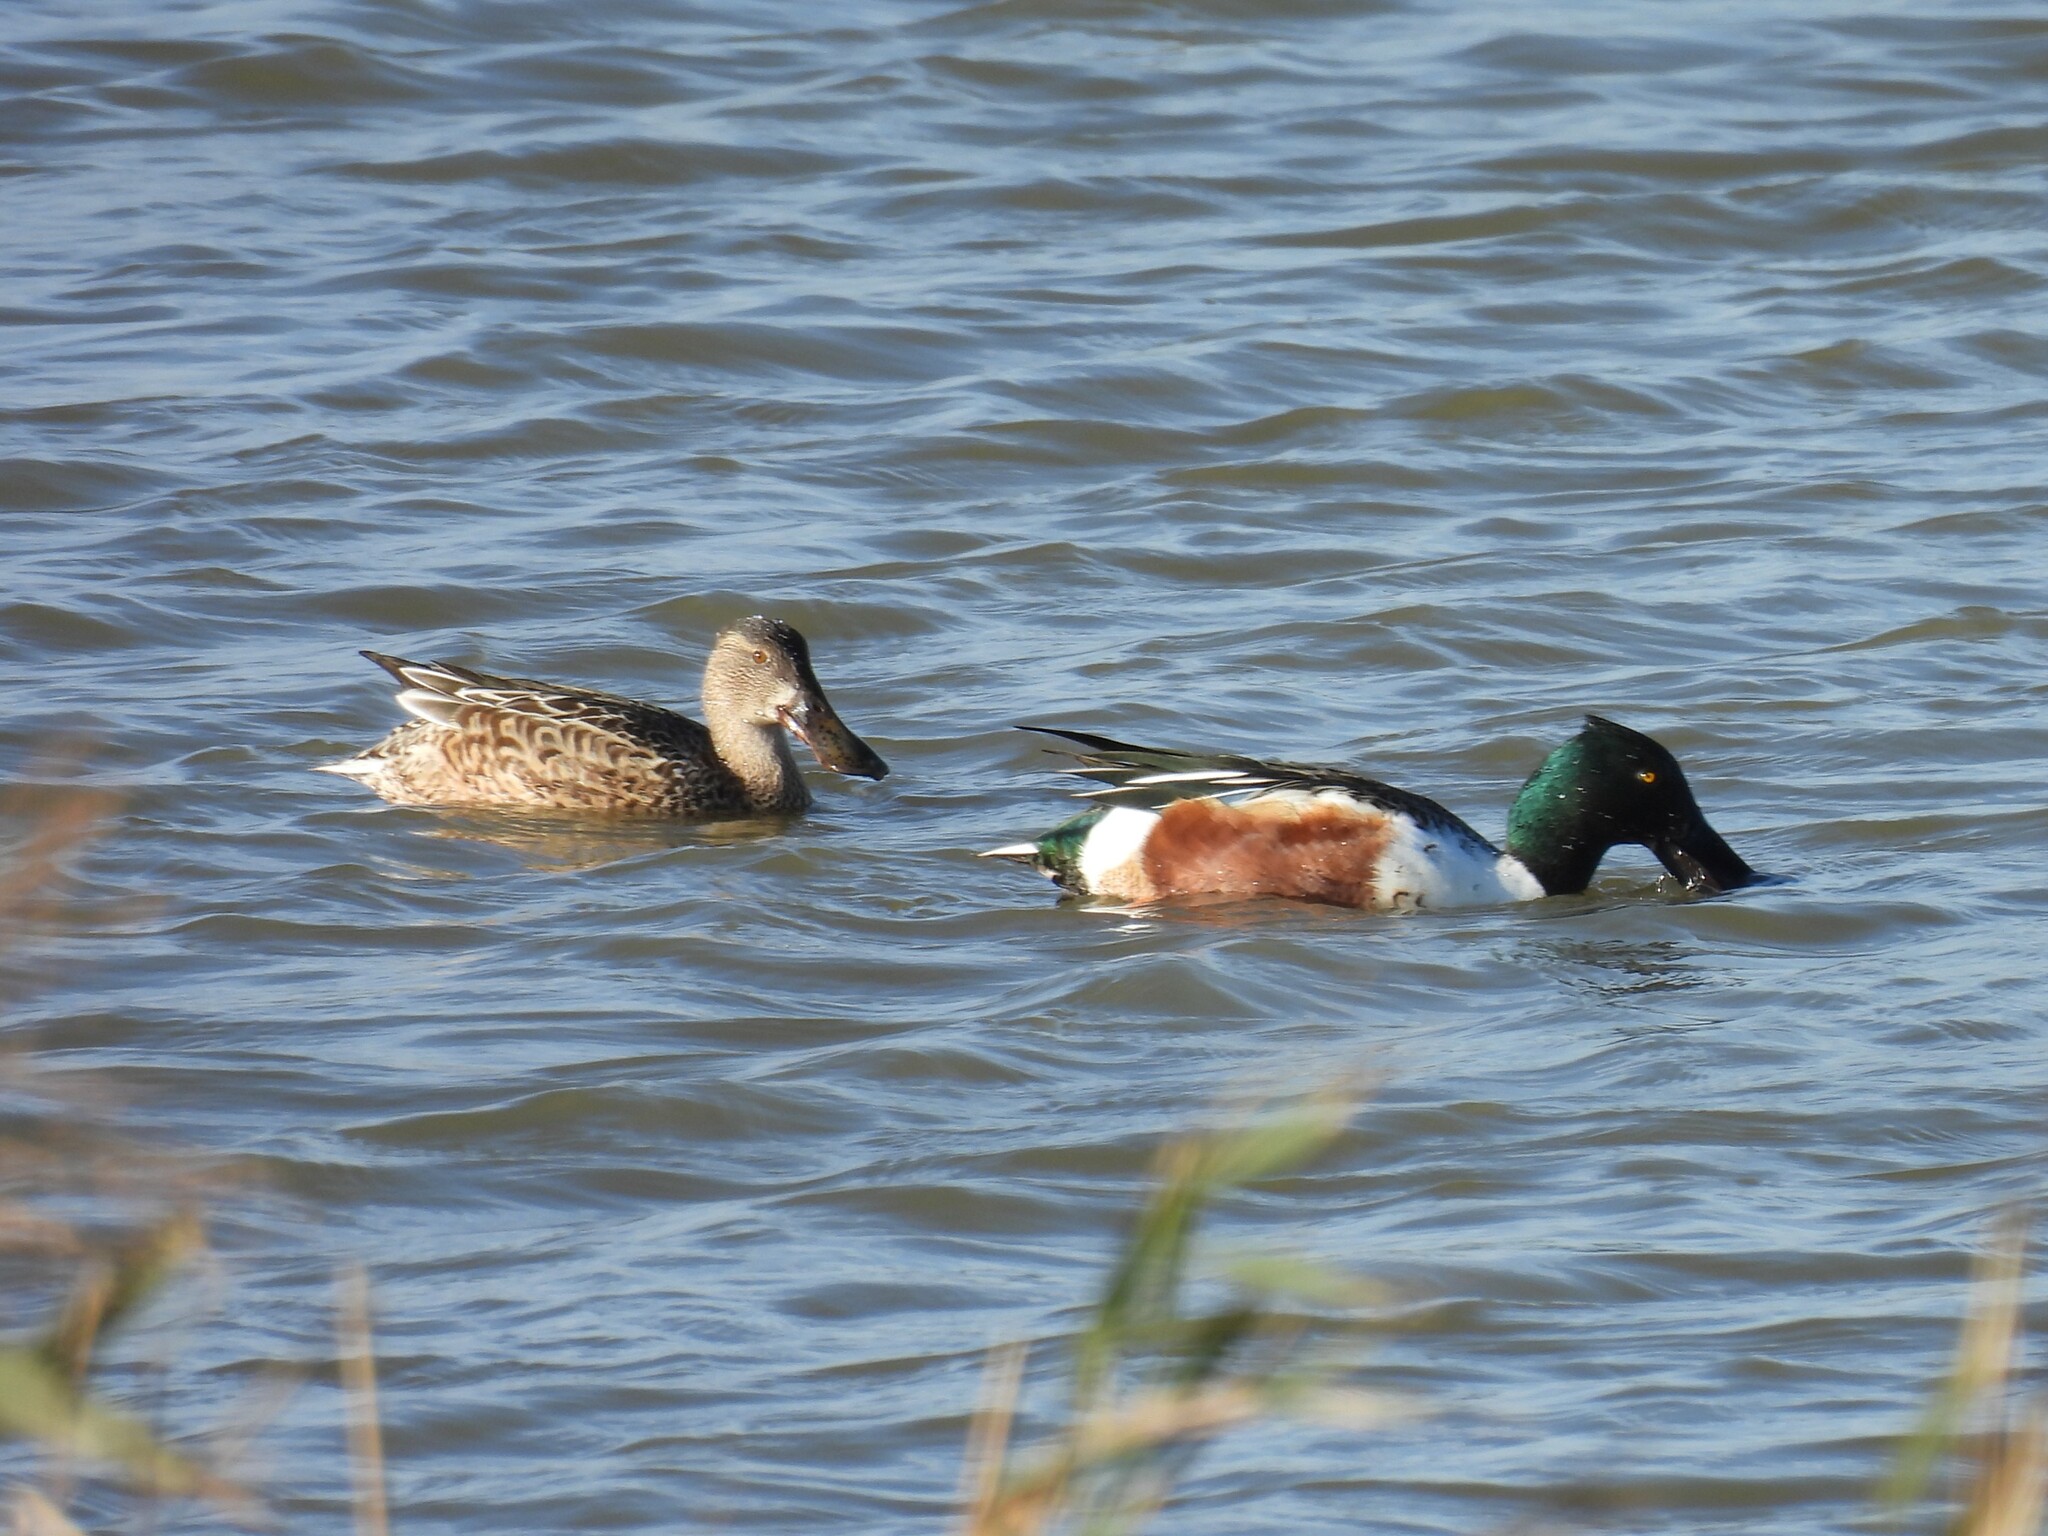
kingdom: Animalia
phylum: Chordata
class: Aves
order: Anseriformes
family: Anatidae
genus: Spatula
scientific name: Spatula clypeata
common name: Northern shoveler
